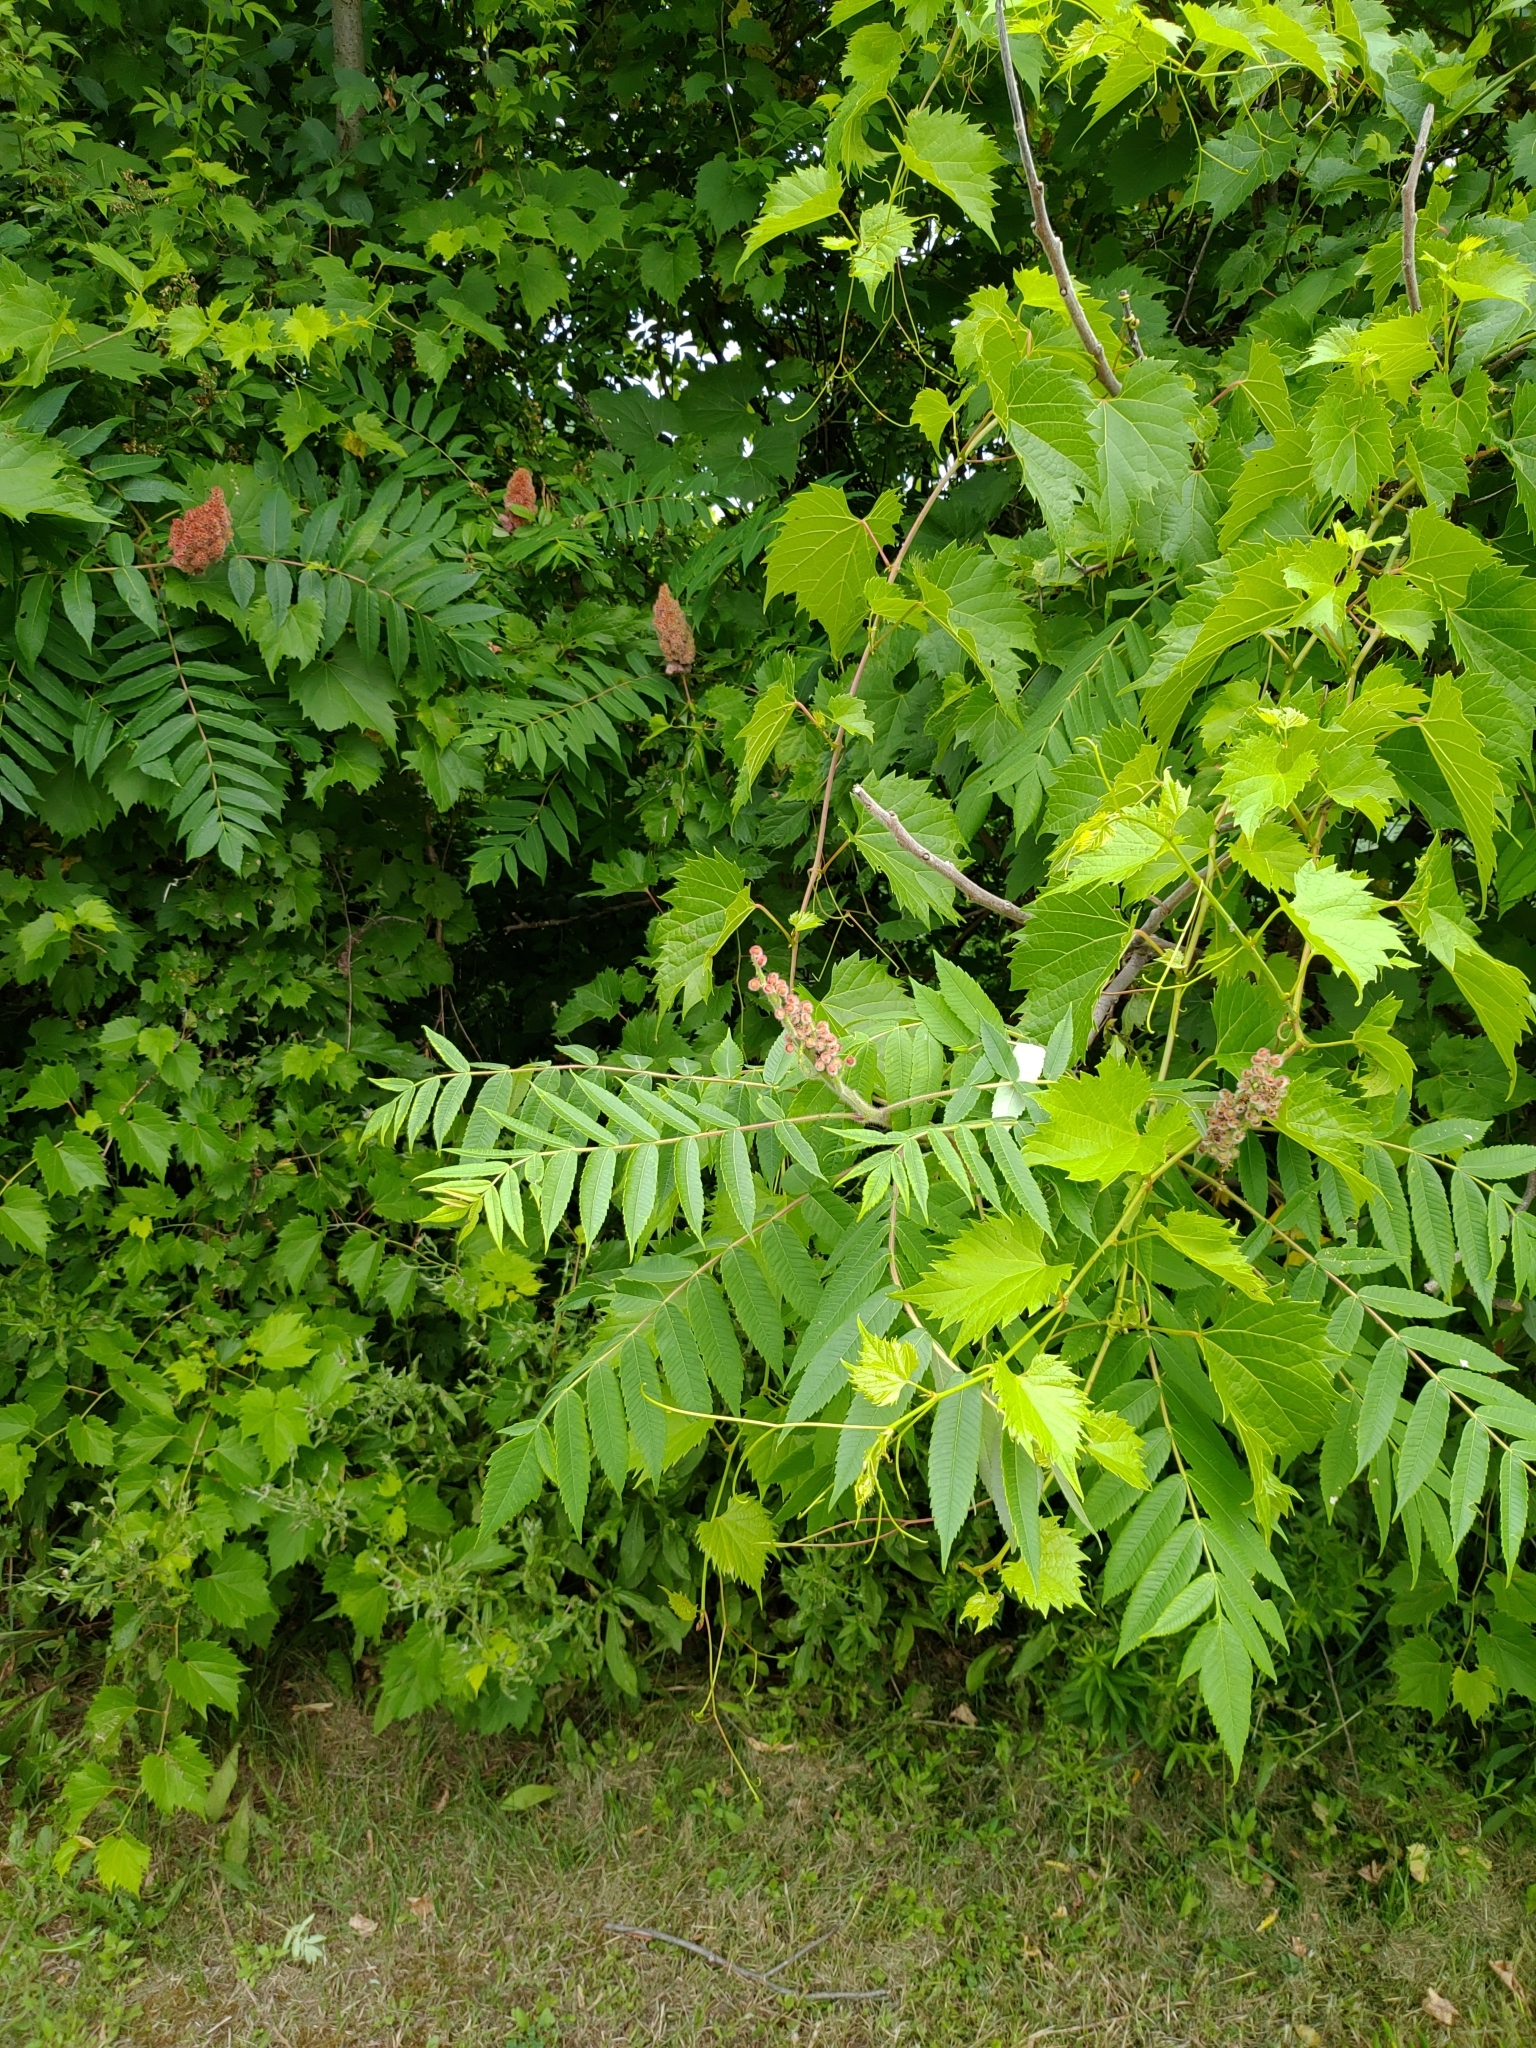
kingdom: Plantae
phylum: Tracheophyta
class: Magnoliopsida
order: Sapindales
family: Anacardiaceae
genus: Rhus
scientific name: Rhus typhina
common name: Staghorn sumac
